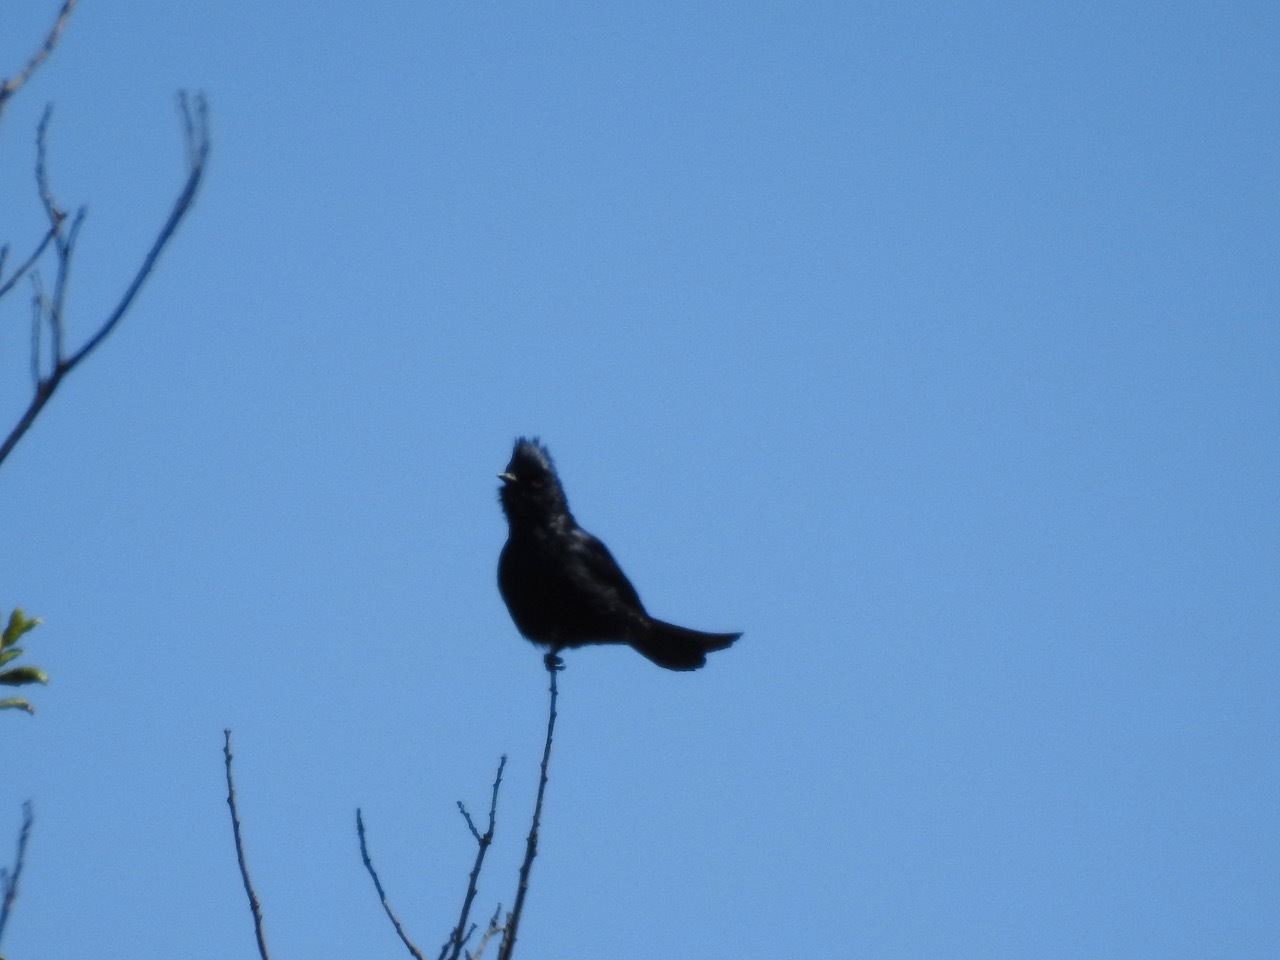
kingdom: Animalia
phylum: Chordata
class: Aves
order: Passeriformes
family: Ptilogonatidae
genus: Phainopepla
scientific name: Phainopepla nitens
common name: Phainopepla
